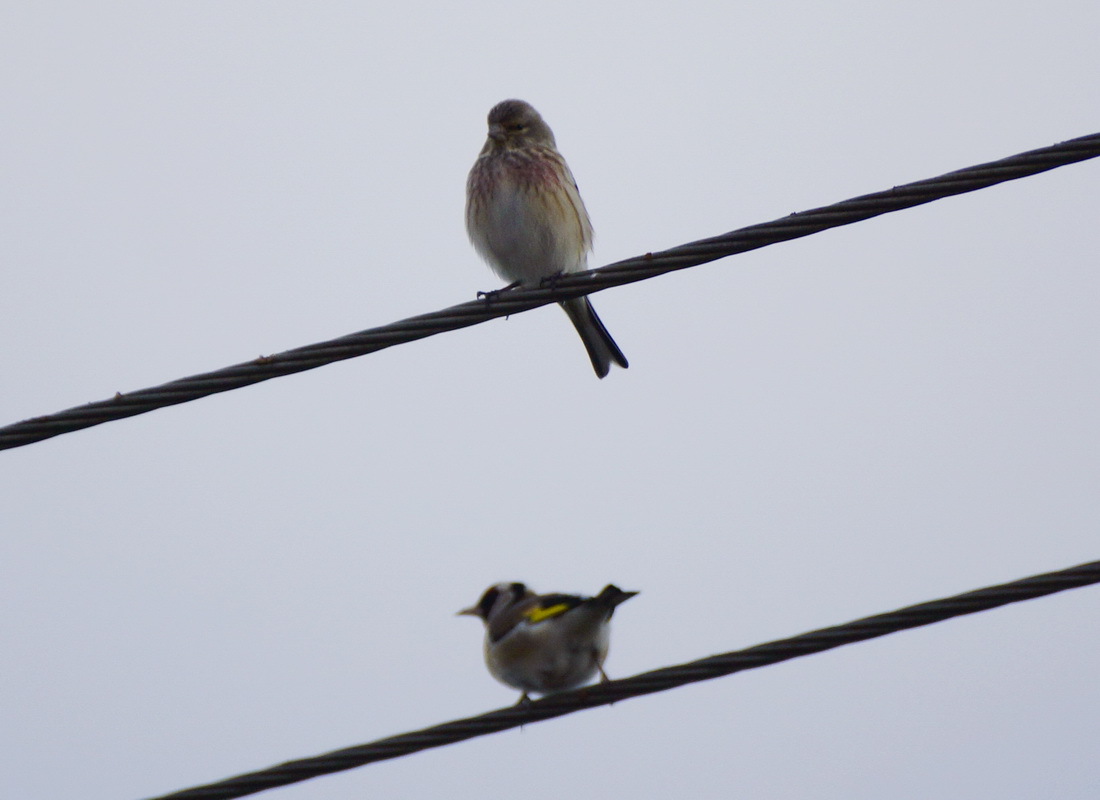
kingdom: Animalia
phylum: Chordata
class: Aves
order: Passeriformes
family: Fringillidae
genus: Linaria
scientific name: Linaria cannabina
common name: Common linnet
